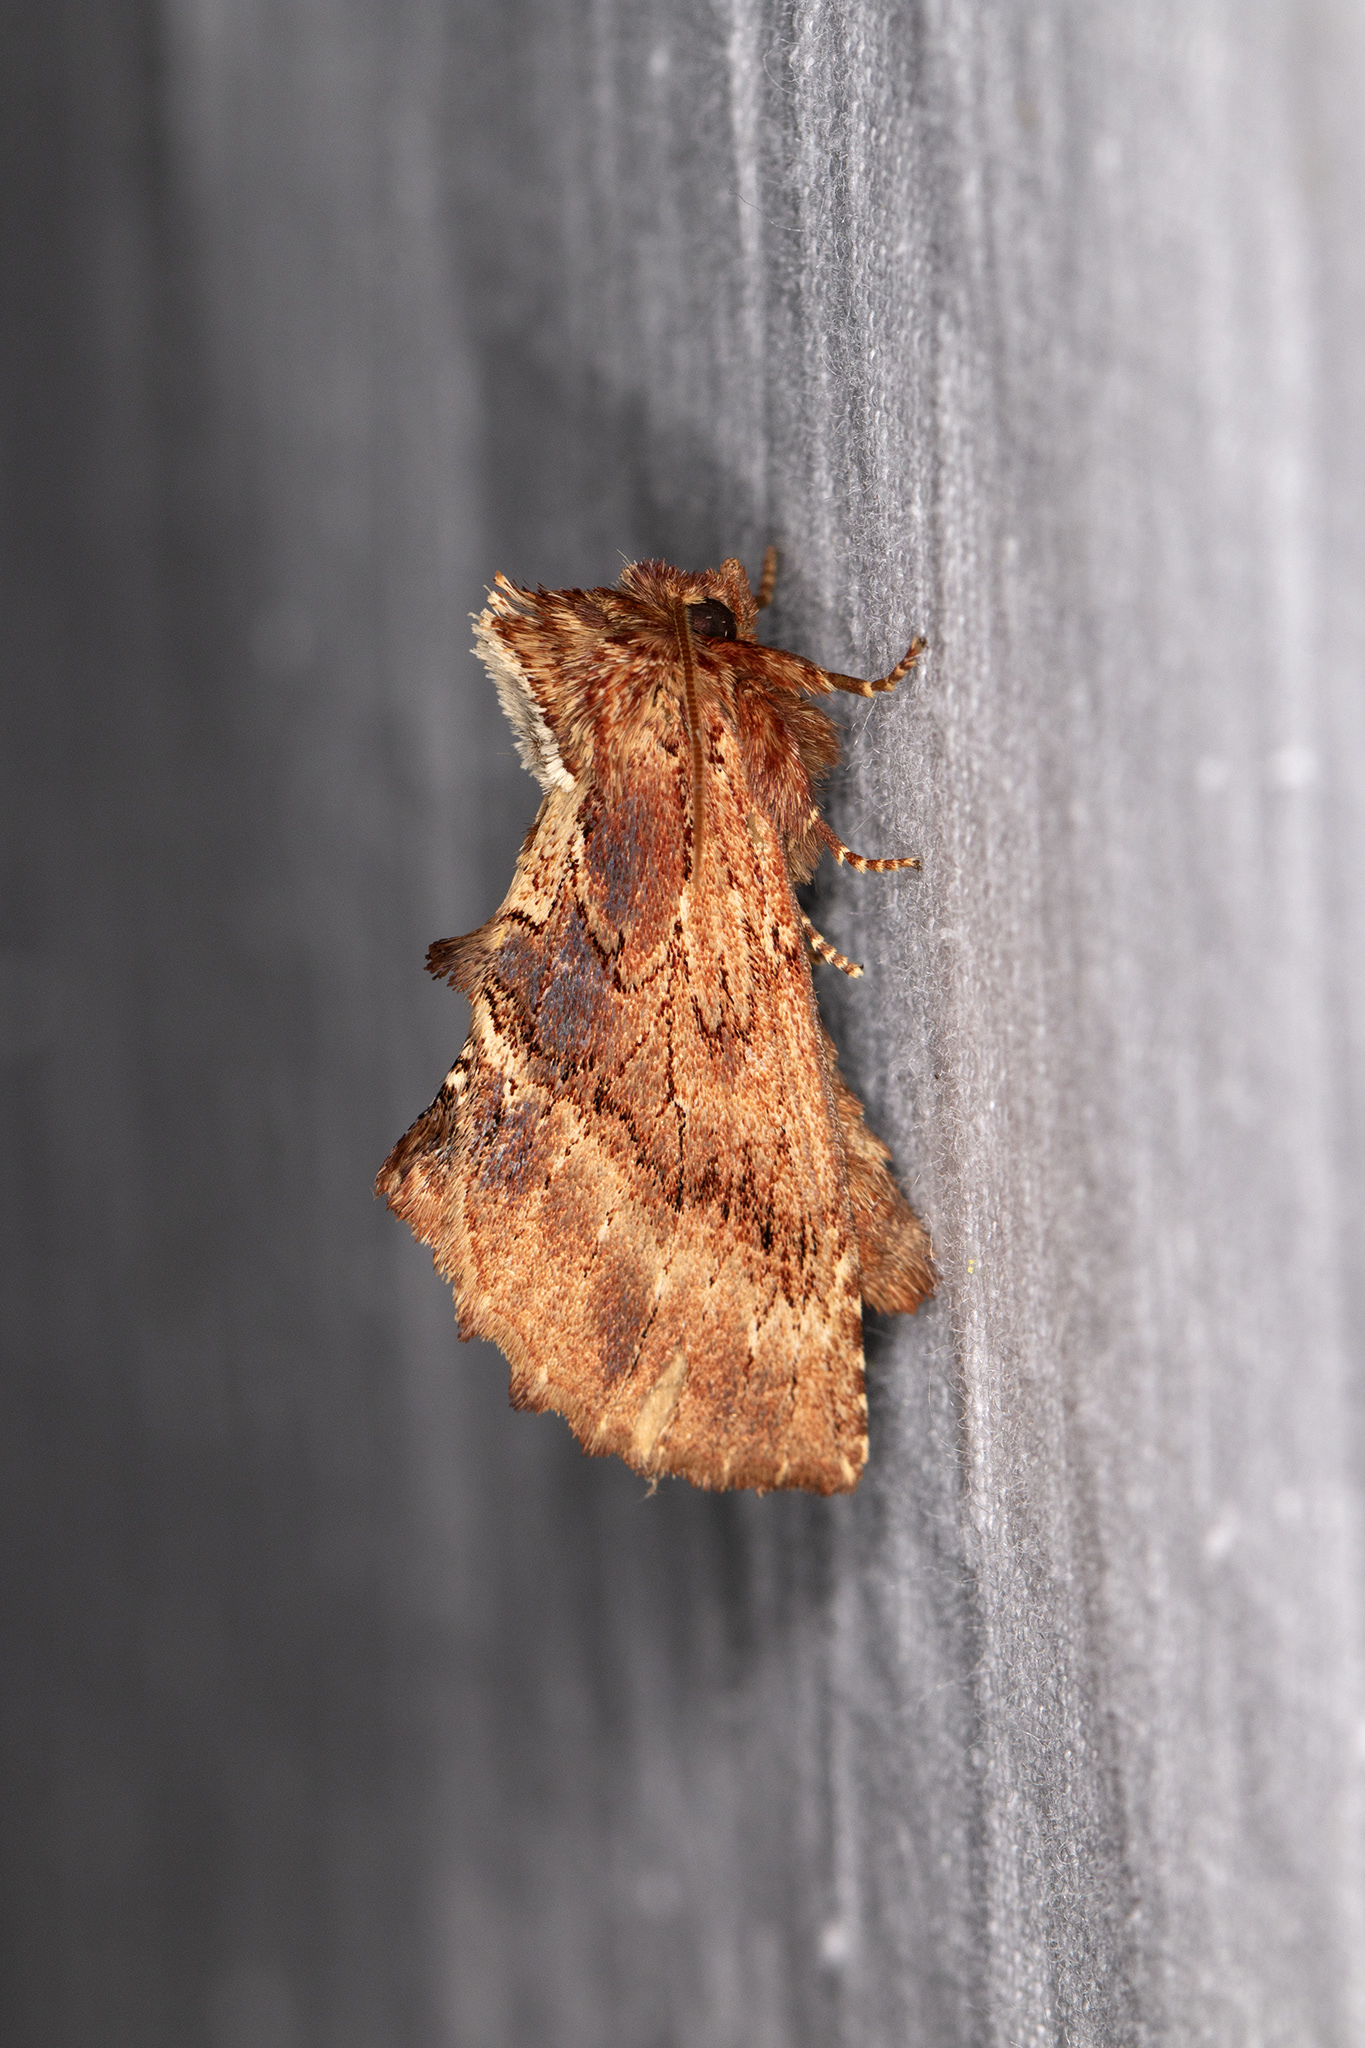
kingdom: Animalia
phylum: Arthropoda
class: Insecta
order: Lepidoptera
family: Notodontidae
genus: Ptilodon
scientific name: Ptilodon capucina
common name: Coxcomb prominent
